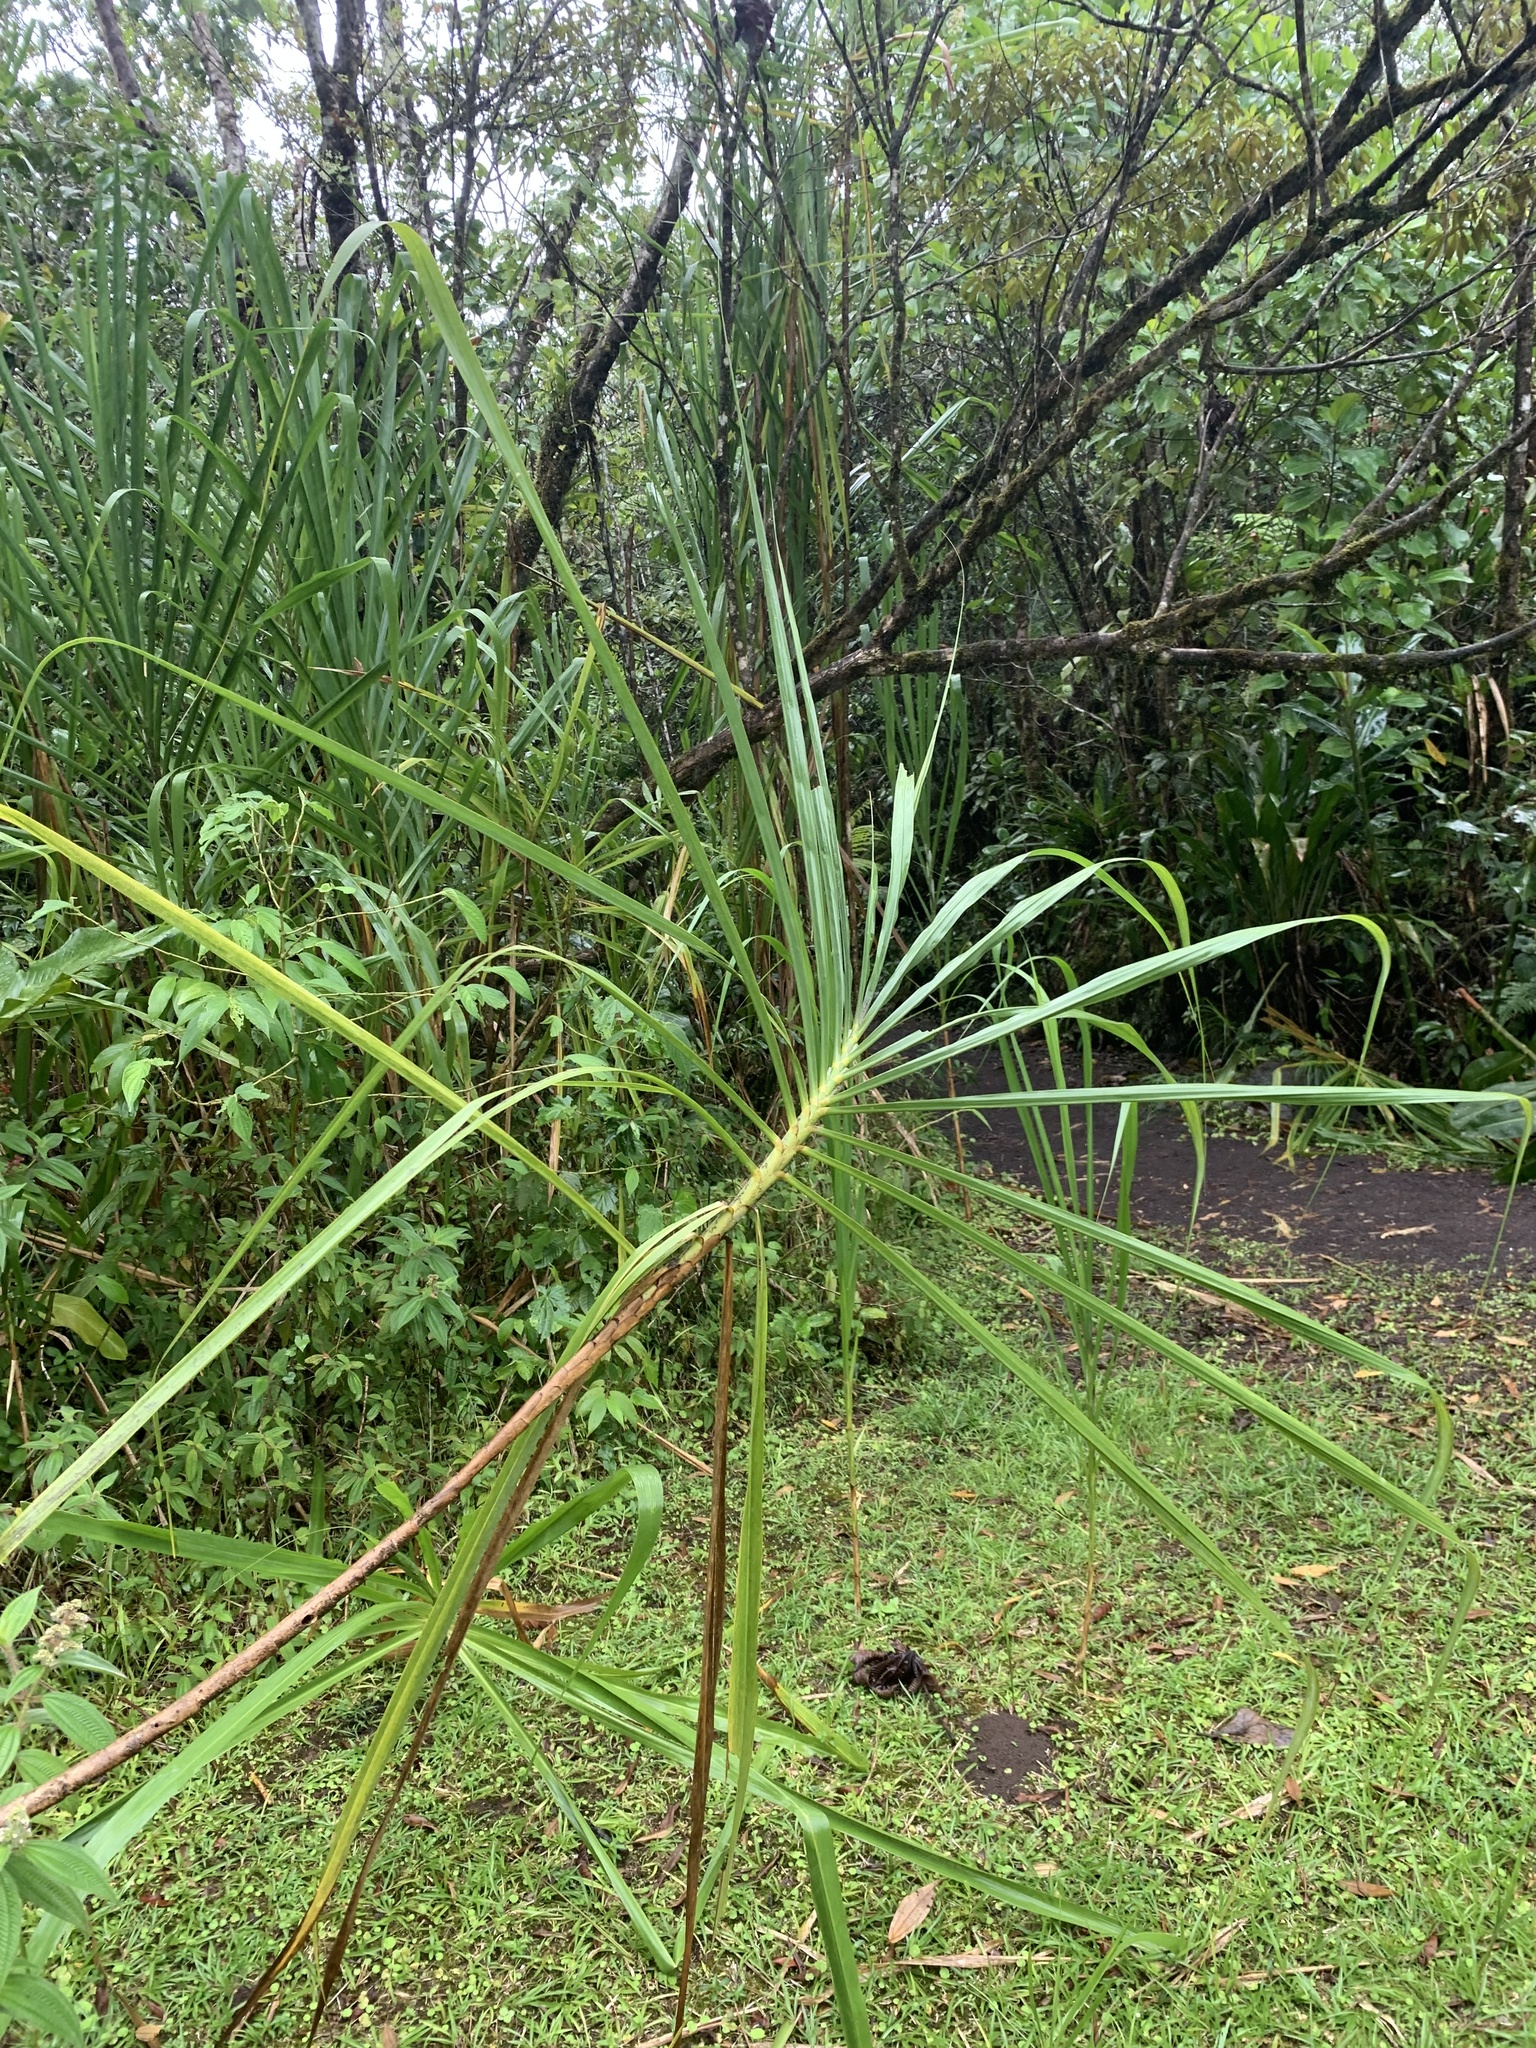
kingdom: Plantae
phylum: Tracheophyta
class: Liliopsida
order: Poales
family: Poaceae
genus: Gynerium
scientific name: Gynerium sagittatum
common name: Wild cane
